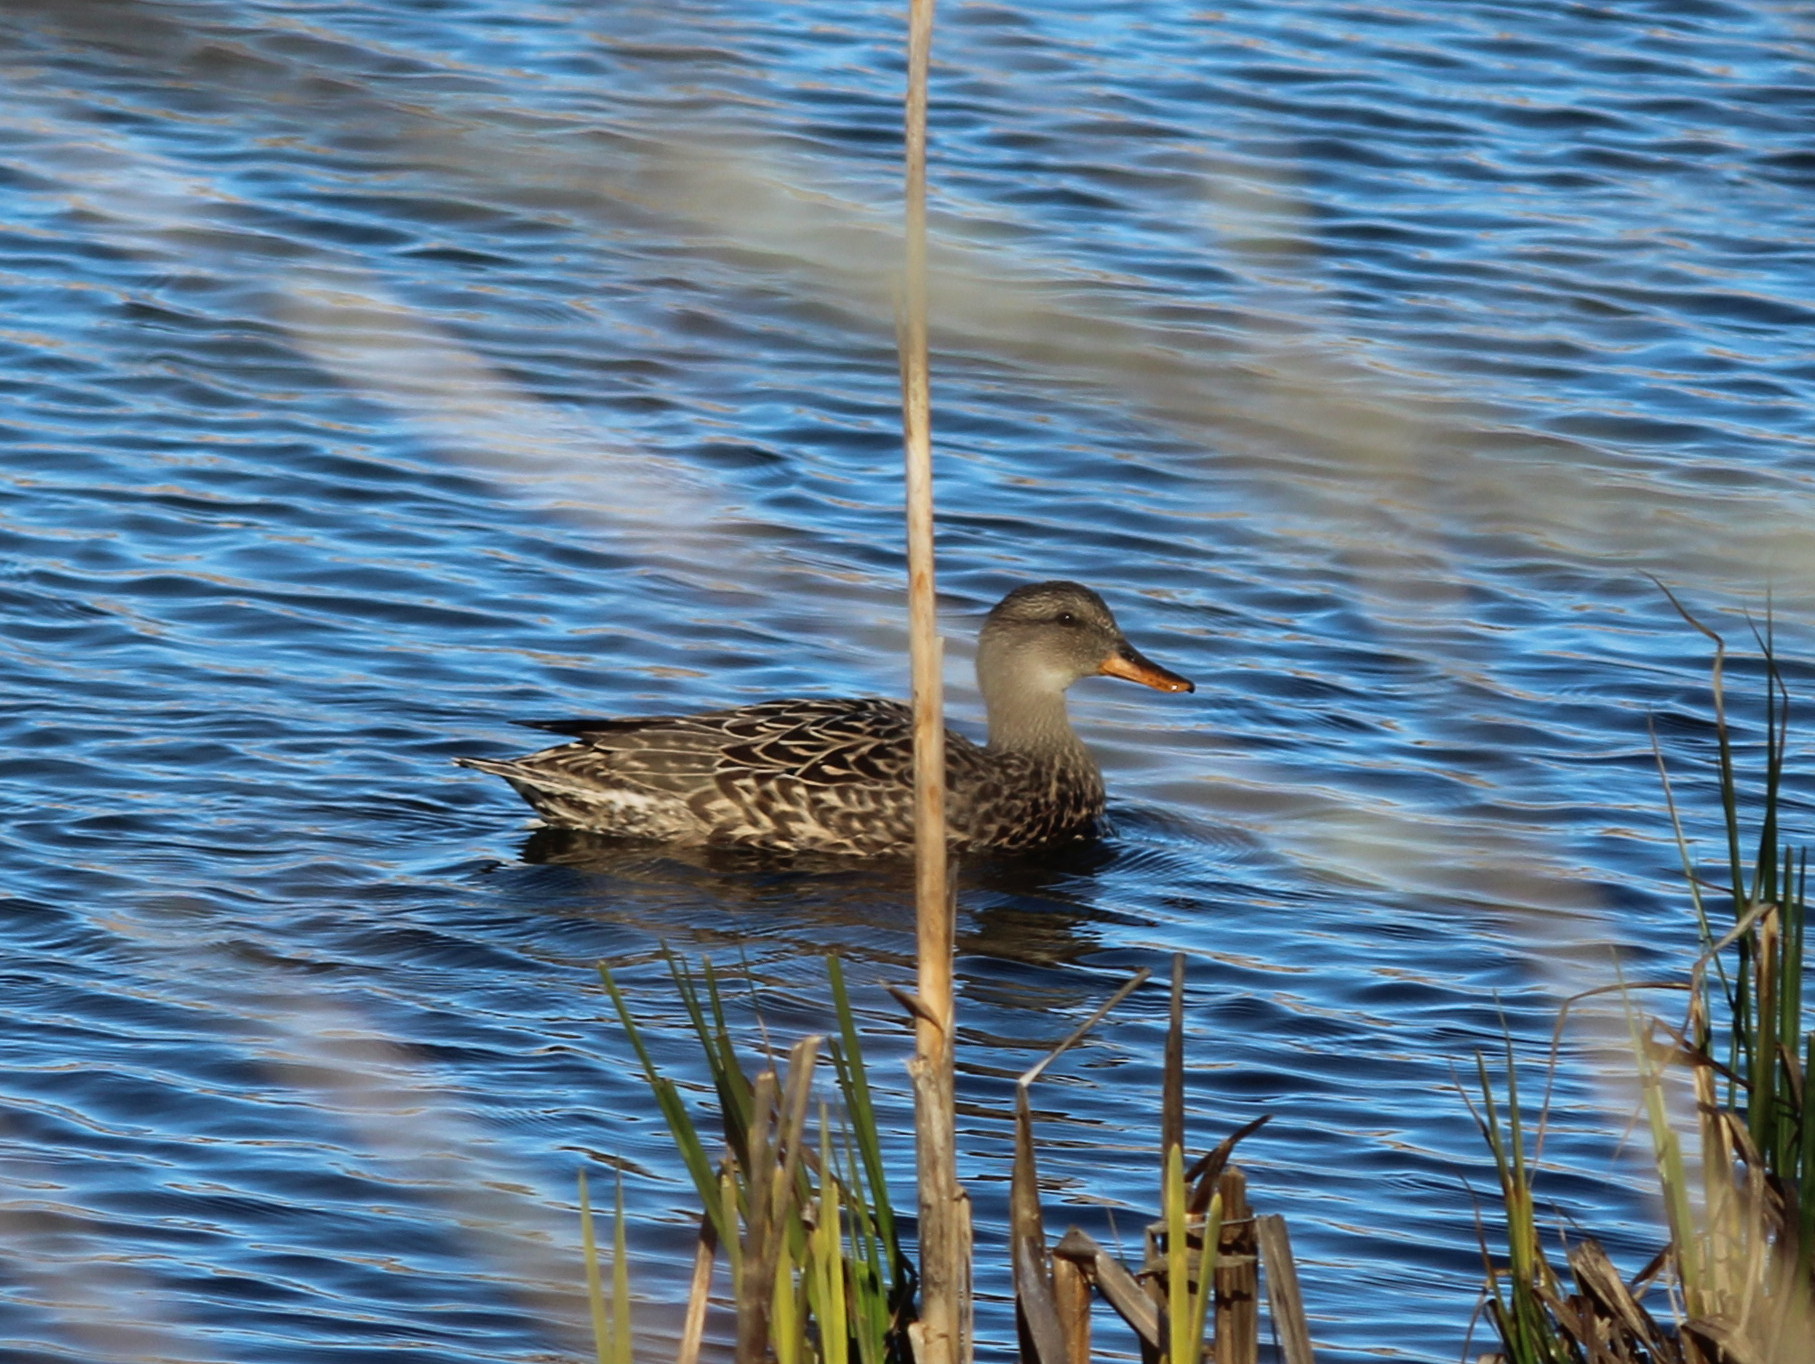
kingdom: Animalia
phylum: Chordata
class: Aves
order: Anseriformes
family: Anatidae
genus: Mareca
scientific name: Mareca strepera
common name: Gadwall
